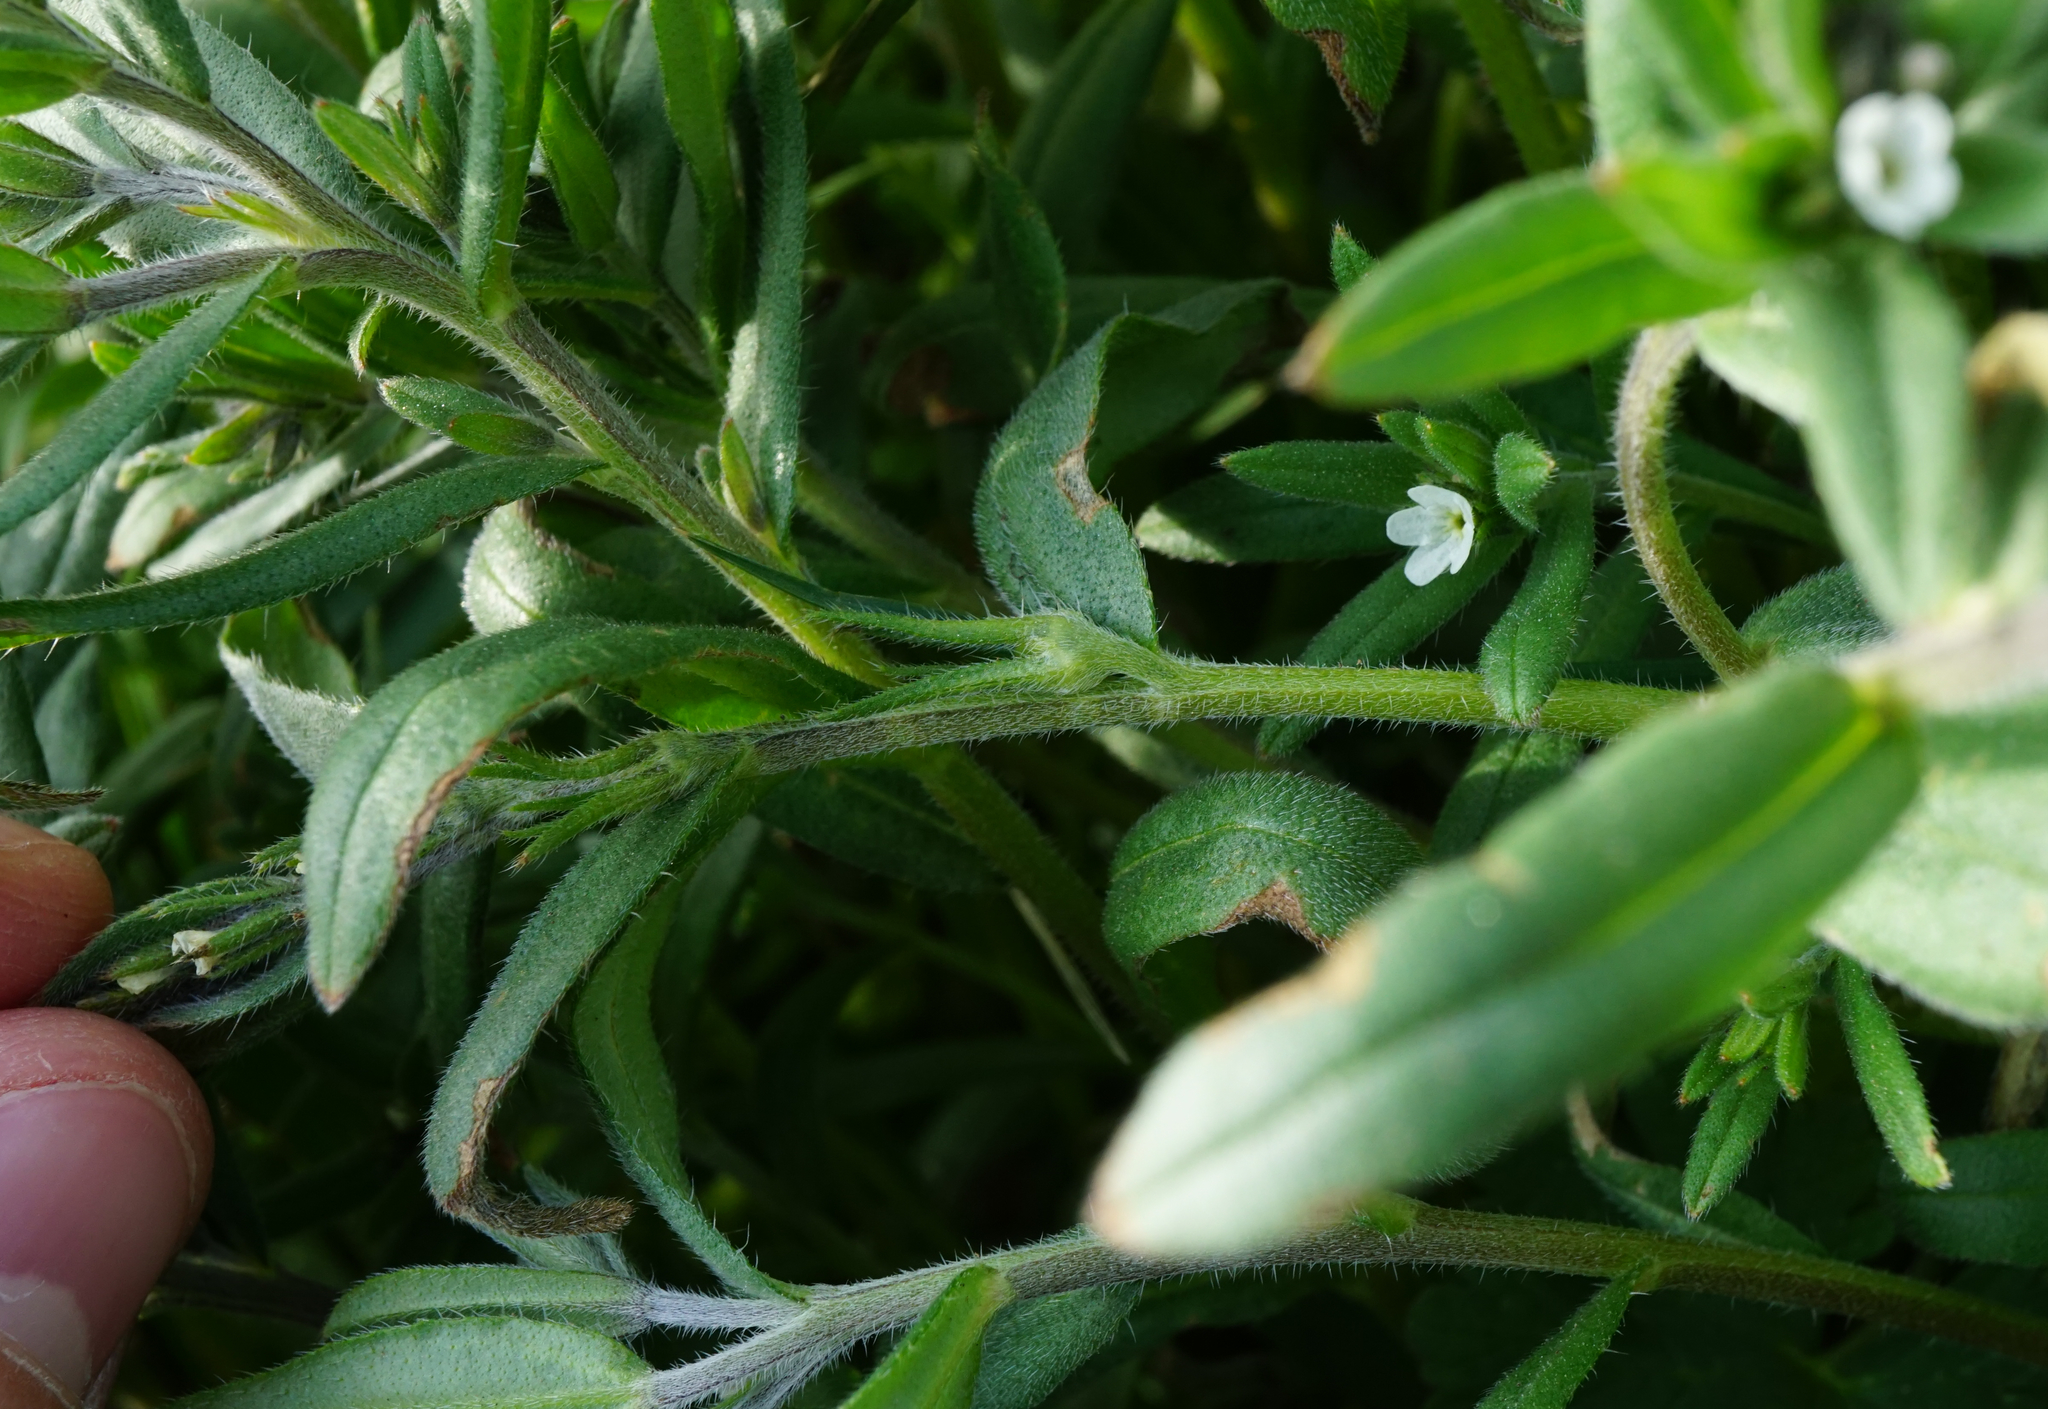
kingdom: Plantae
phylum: Tracheophyta
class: Magnoliopsida
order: Boraginales
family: Boraginaceae
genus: Buglossoides
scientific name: Buglossoides arvensis
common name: Corn gromwell
